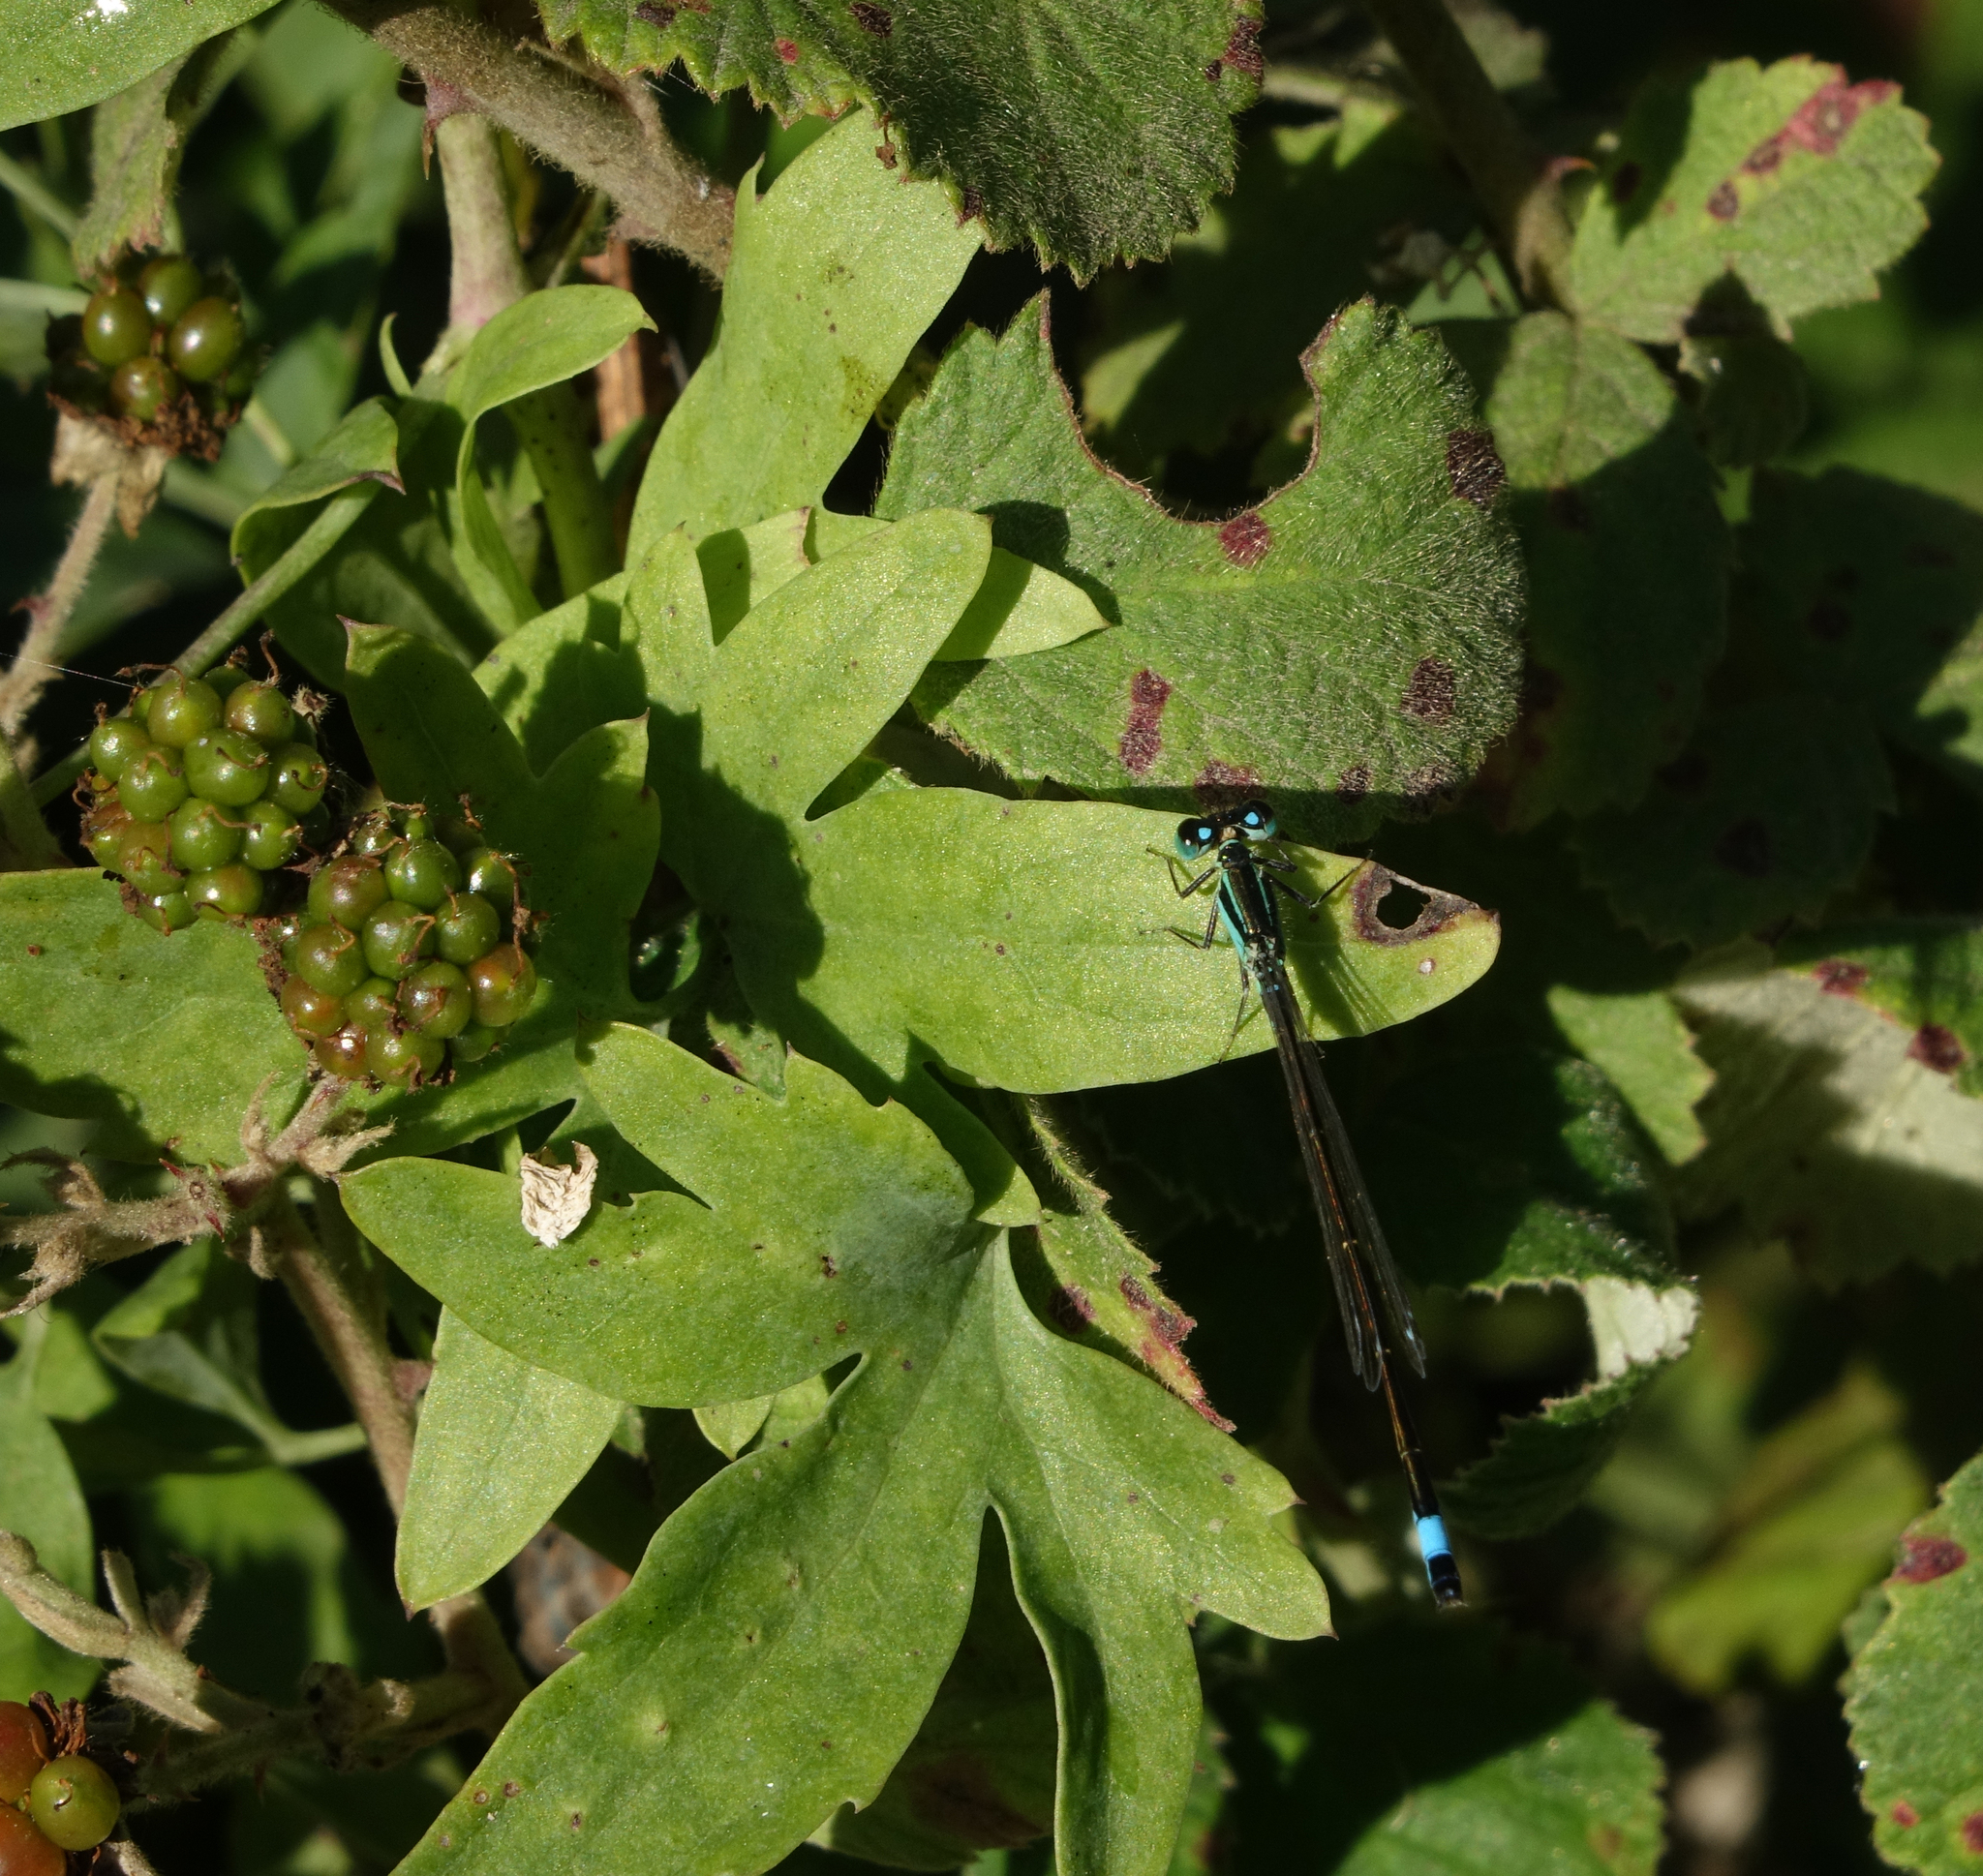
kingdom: Animalia
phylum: Arthropoda
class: Insecta
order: Odonata
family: Coenagrionidae
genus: Ischnura
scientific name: Ischnura elegans
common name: Blue-tailed damselfly
